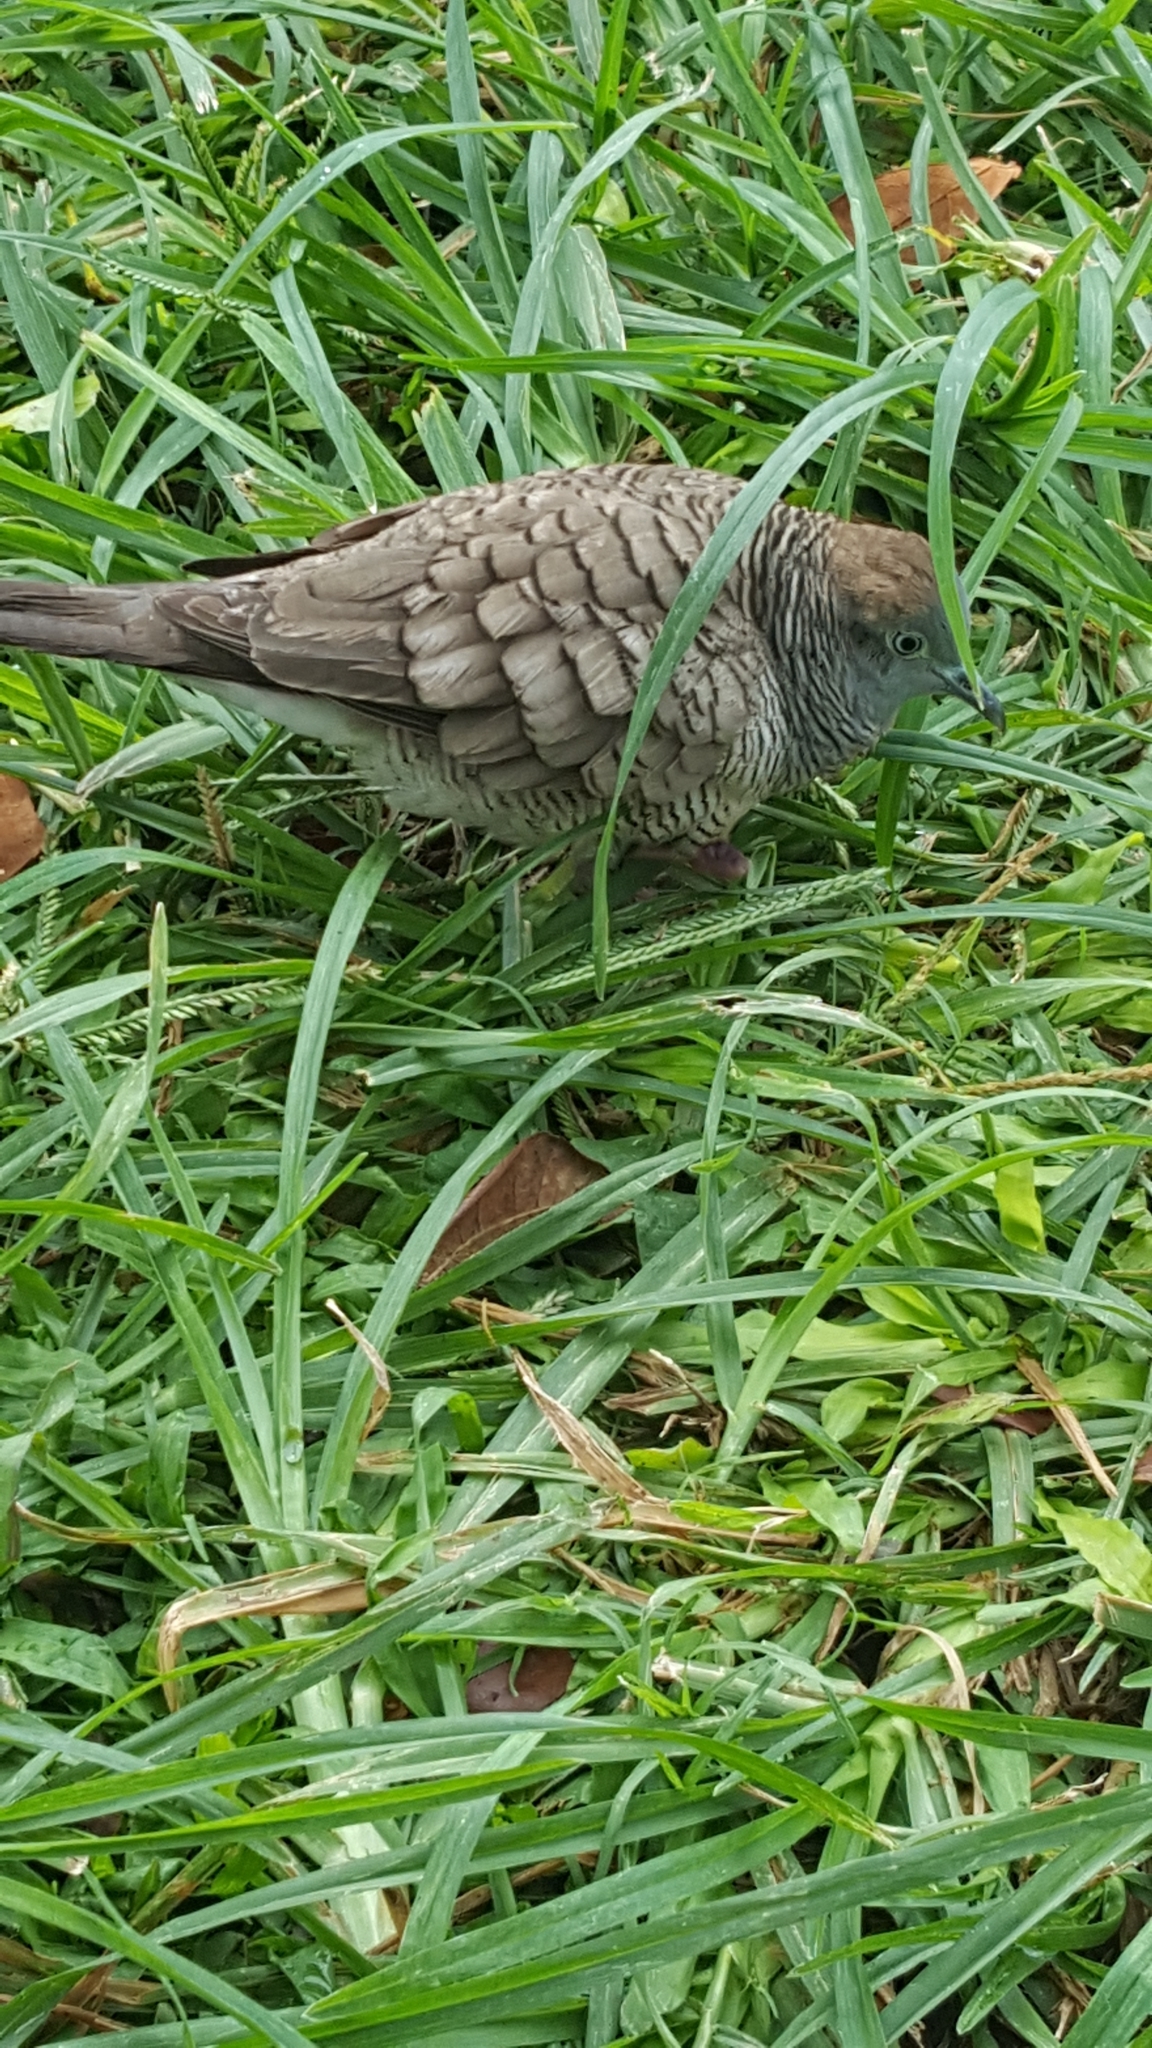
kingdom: Animalia
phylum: Chordata
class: Aves
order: Columbiformes
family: Columbidae
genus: Geopelia
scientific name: Geopelia striata
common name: Zebra dove
